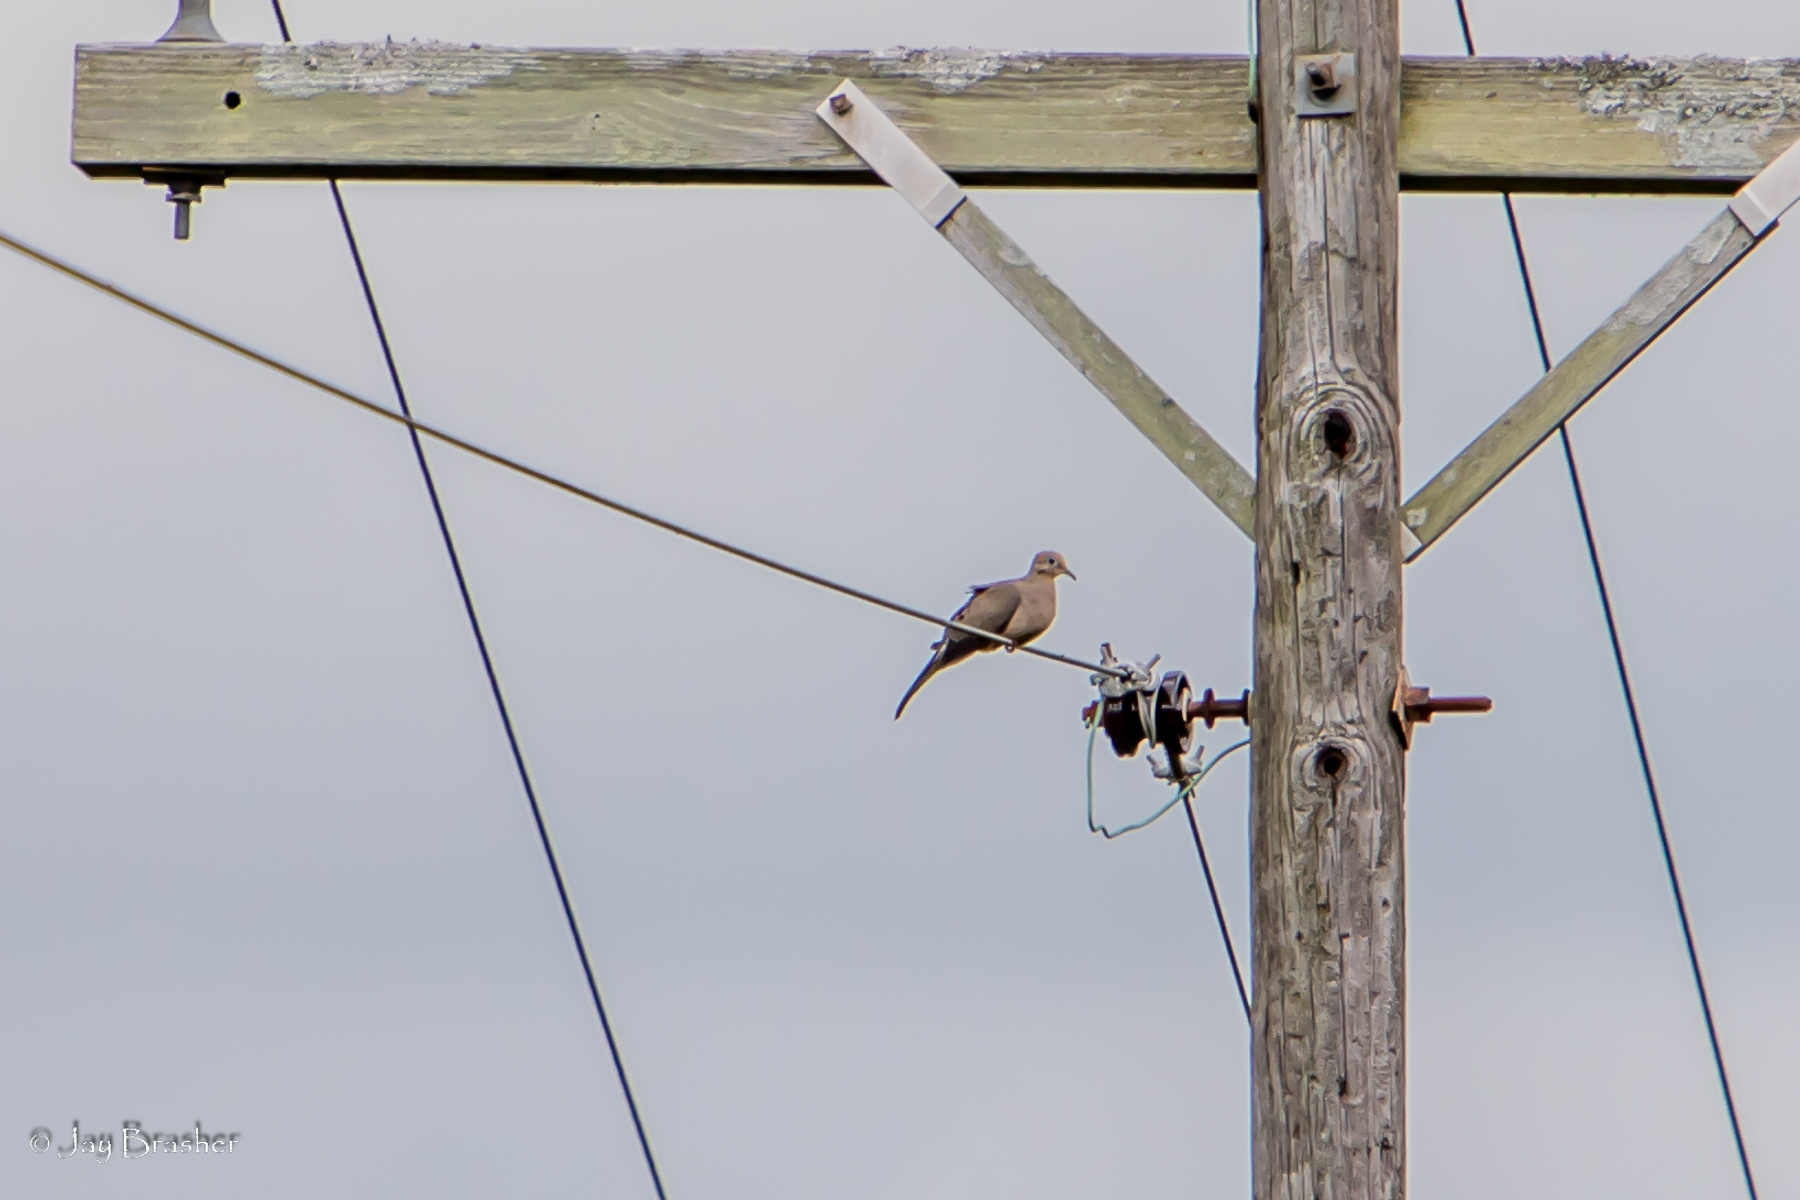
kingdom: Animalia
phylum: Chordata
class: Aves
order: Columbiformes
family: Columbidae
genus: Zenaida
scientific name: Zenaida macroura
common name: Mourning dove
